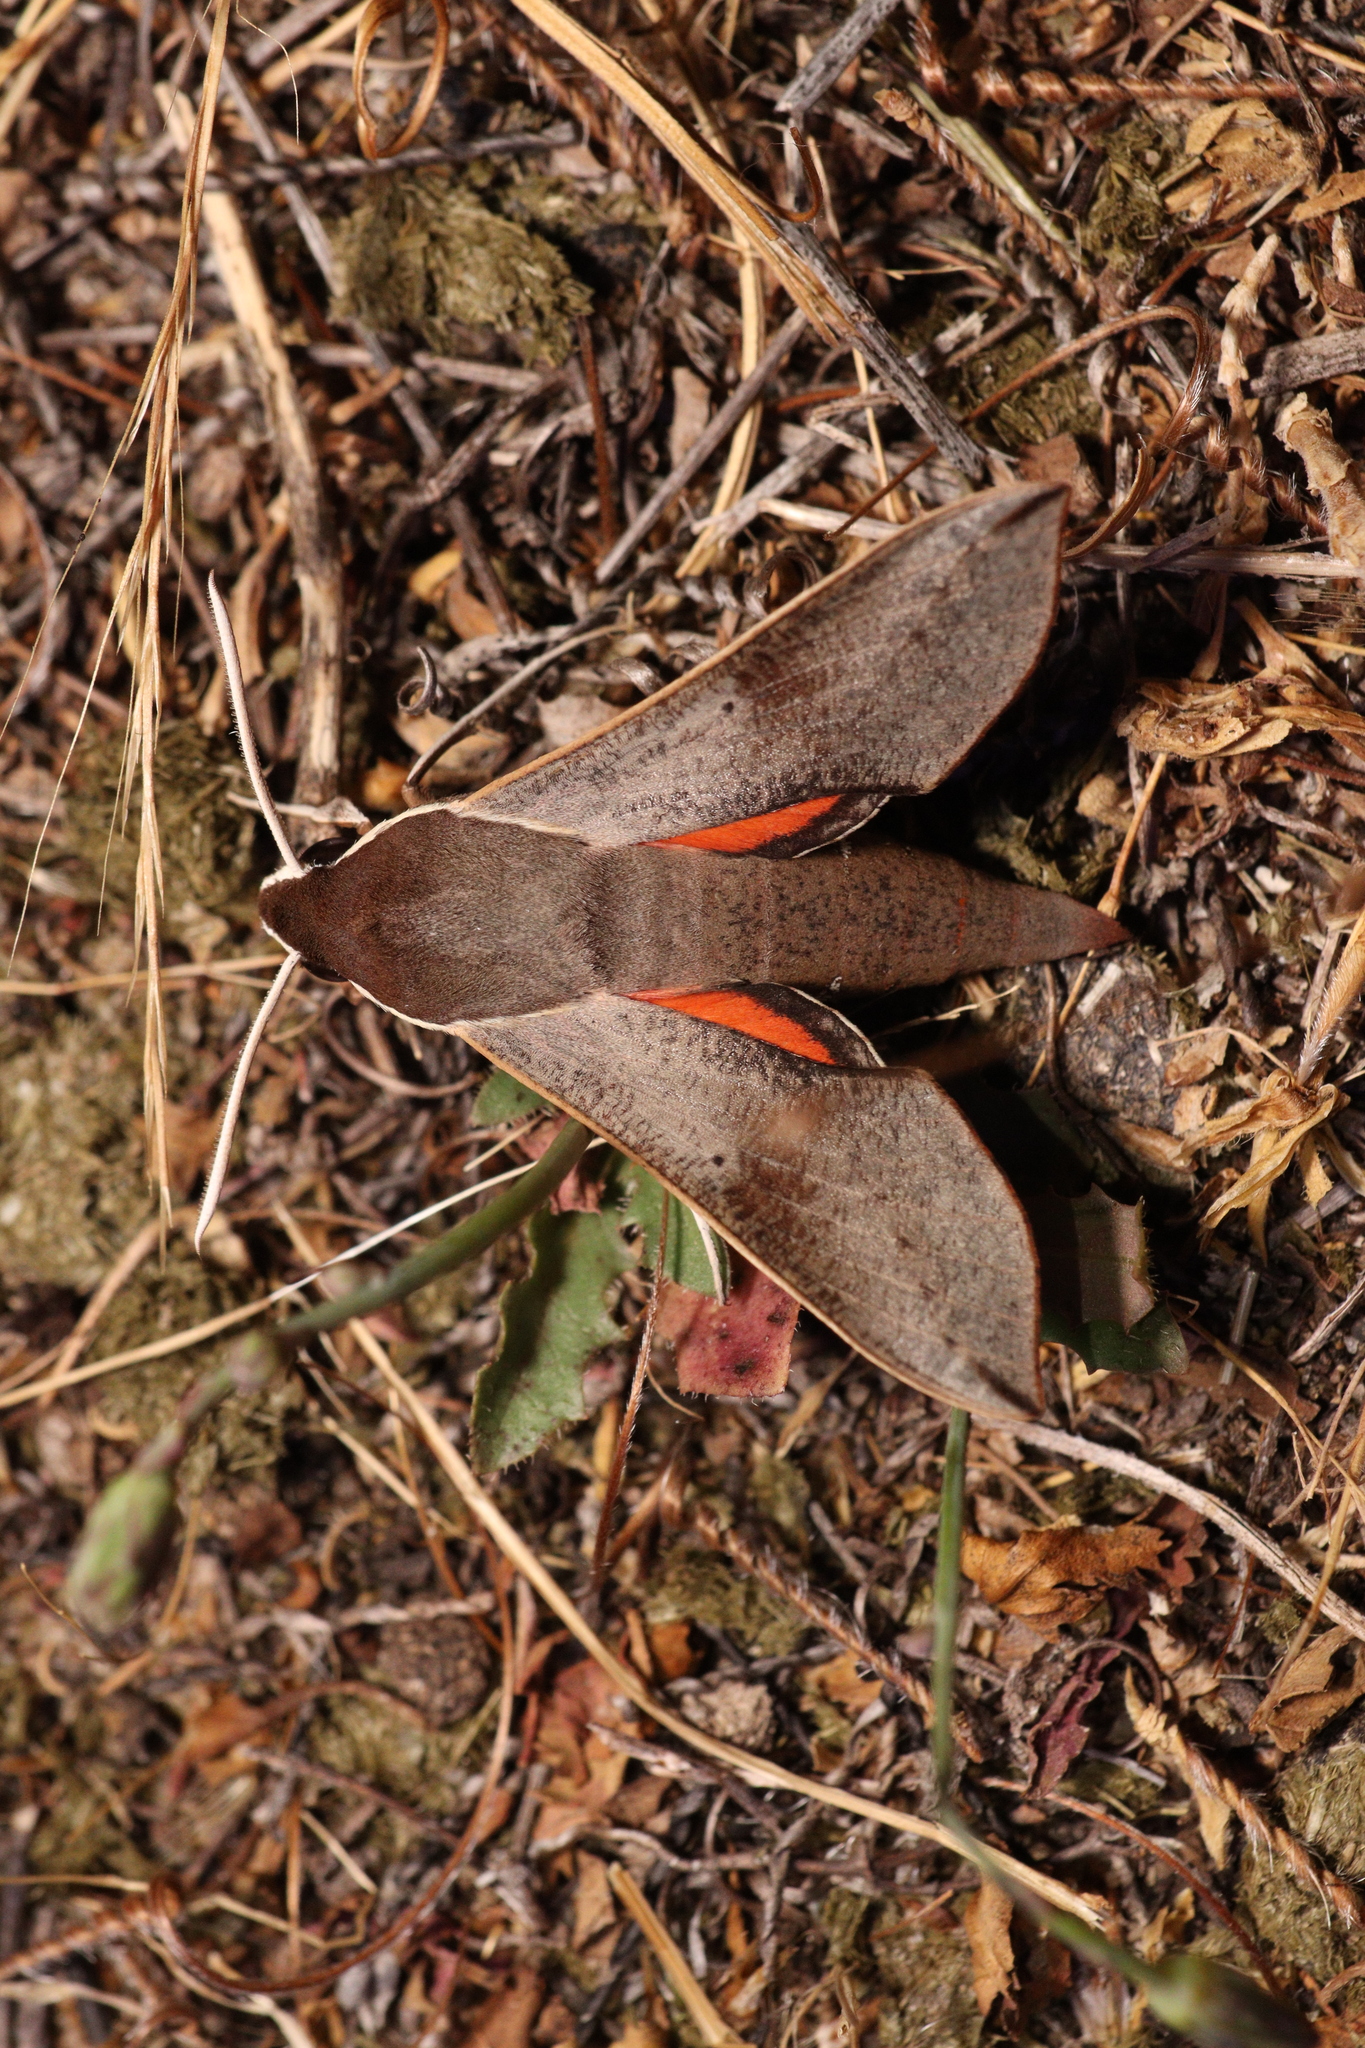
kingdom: Animalia
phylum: Arthropoda
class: Insecta
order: Lepidoptera
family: Sphingidae
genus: Hippotion
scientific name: Hippotion scrofa
